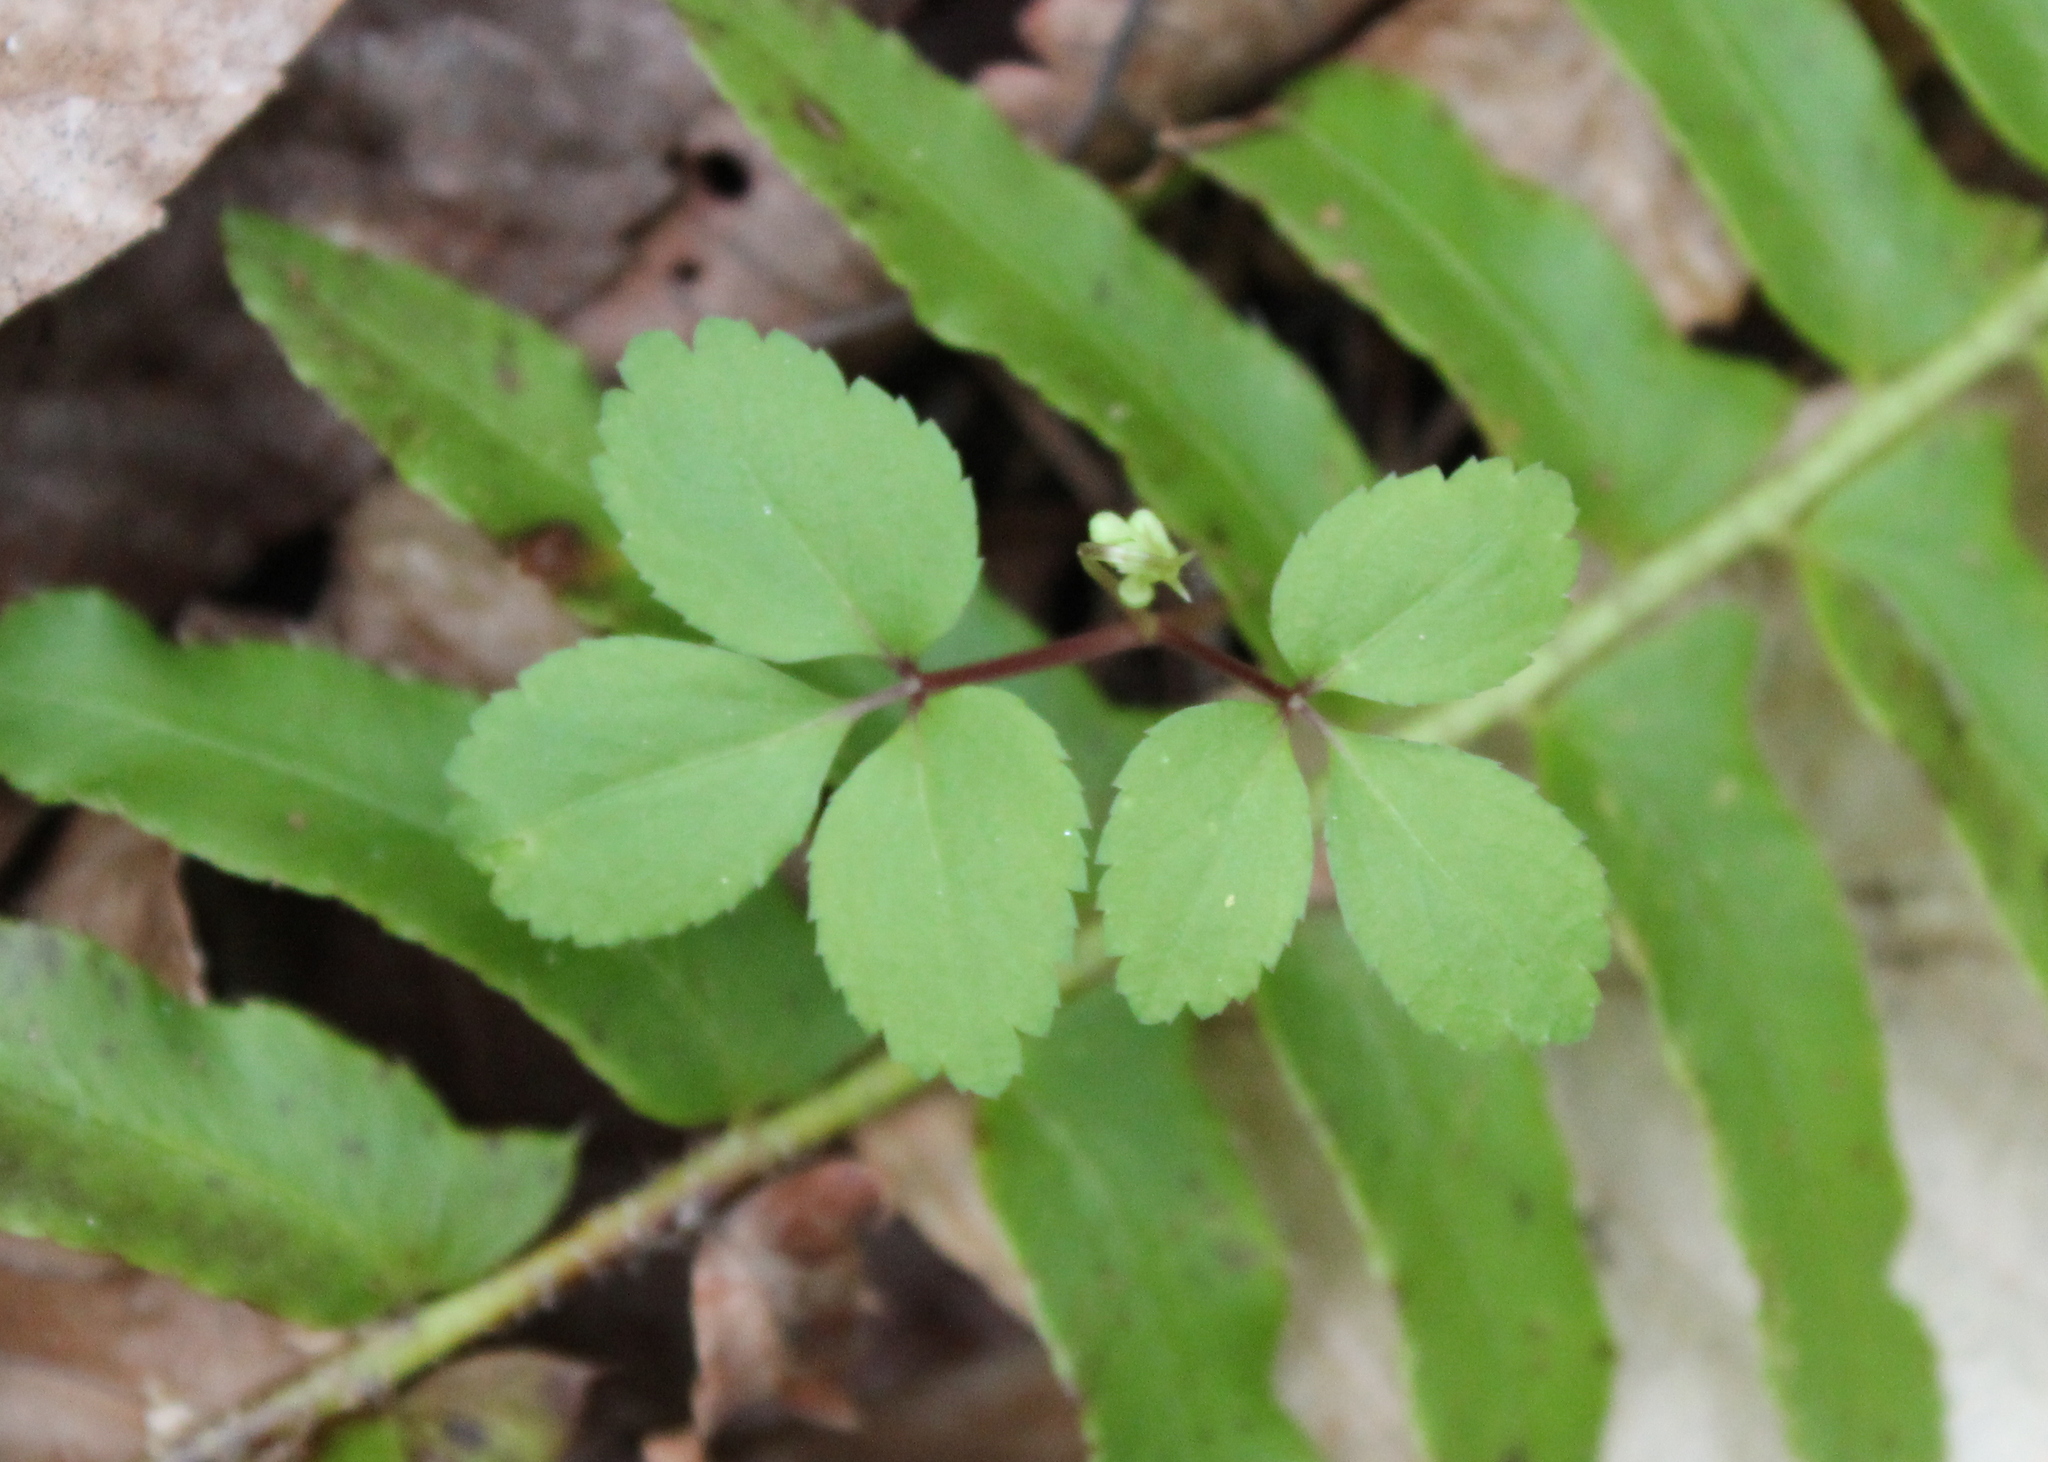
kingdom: Plantae
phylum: Tracheophyta
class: Magnoliopsida
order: Apiales
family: Araliaceae
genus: Panax
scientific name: Panax trifolius
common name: Dwarf ginseng
